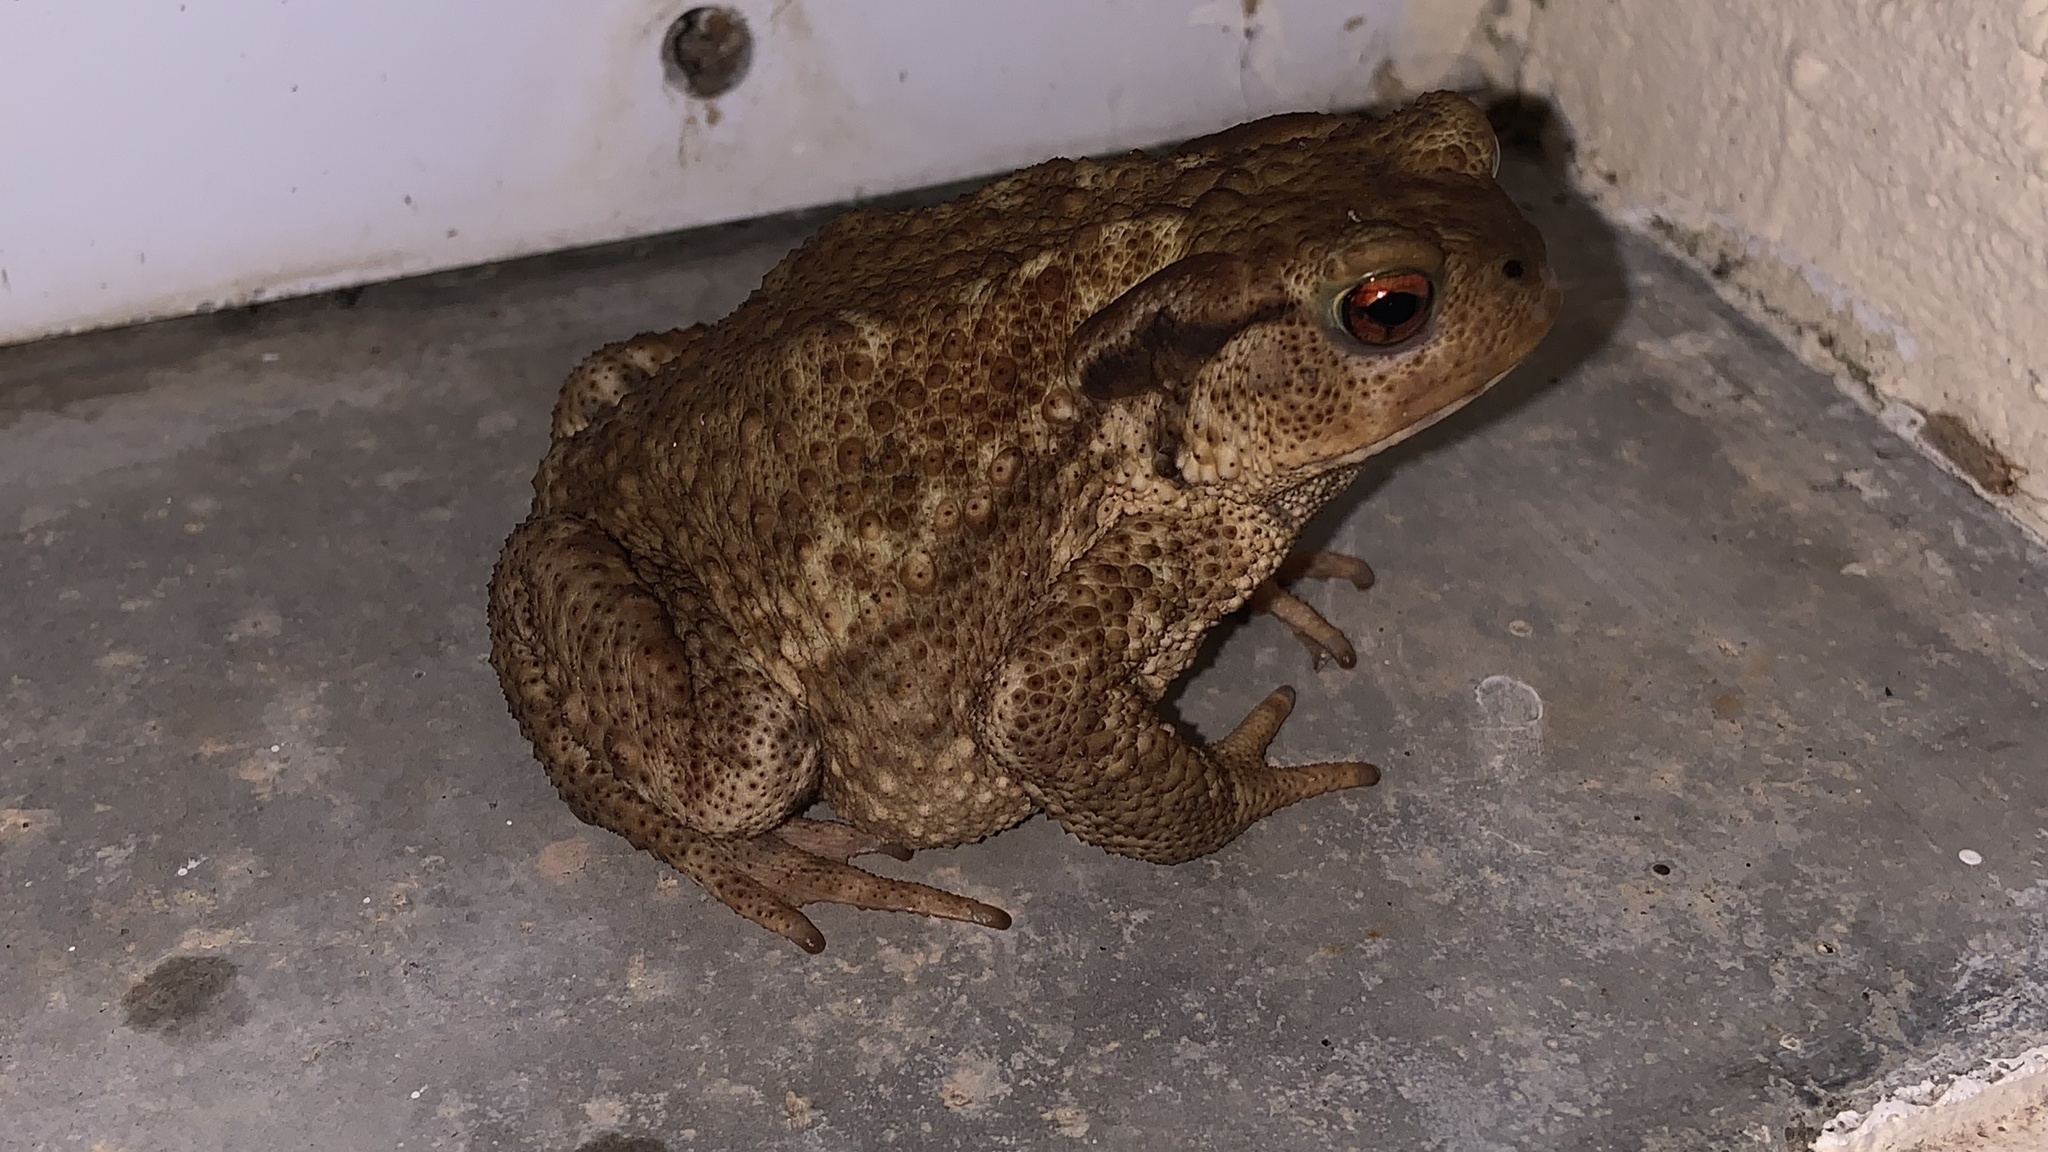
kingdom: Animalia
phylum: Chordata
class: Amphibia
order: Anura
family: Bufonidae
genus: Bufo
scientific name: Bufo spinosus
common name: Western common toad
